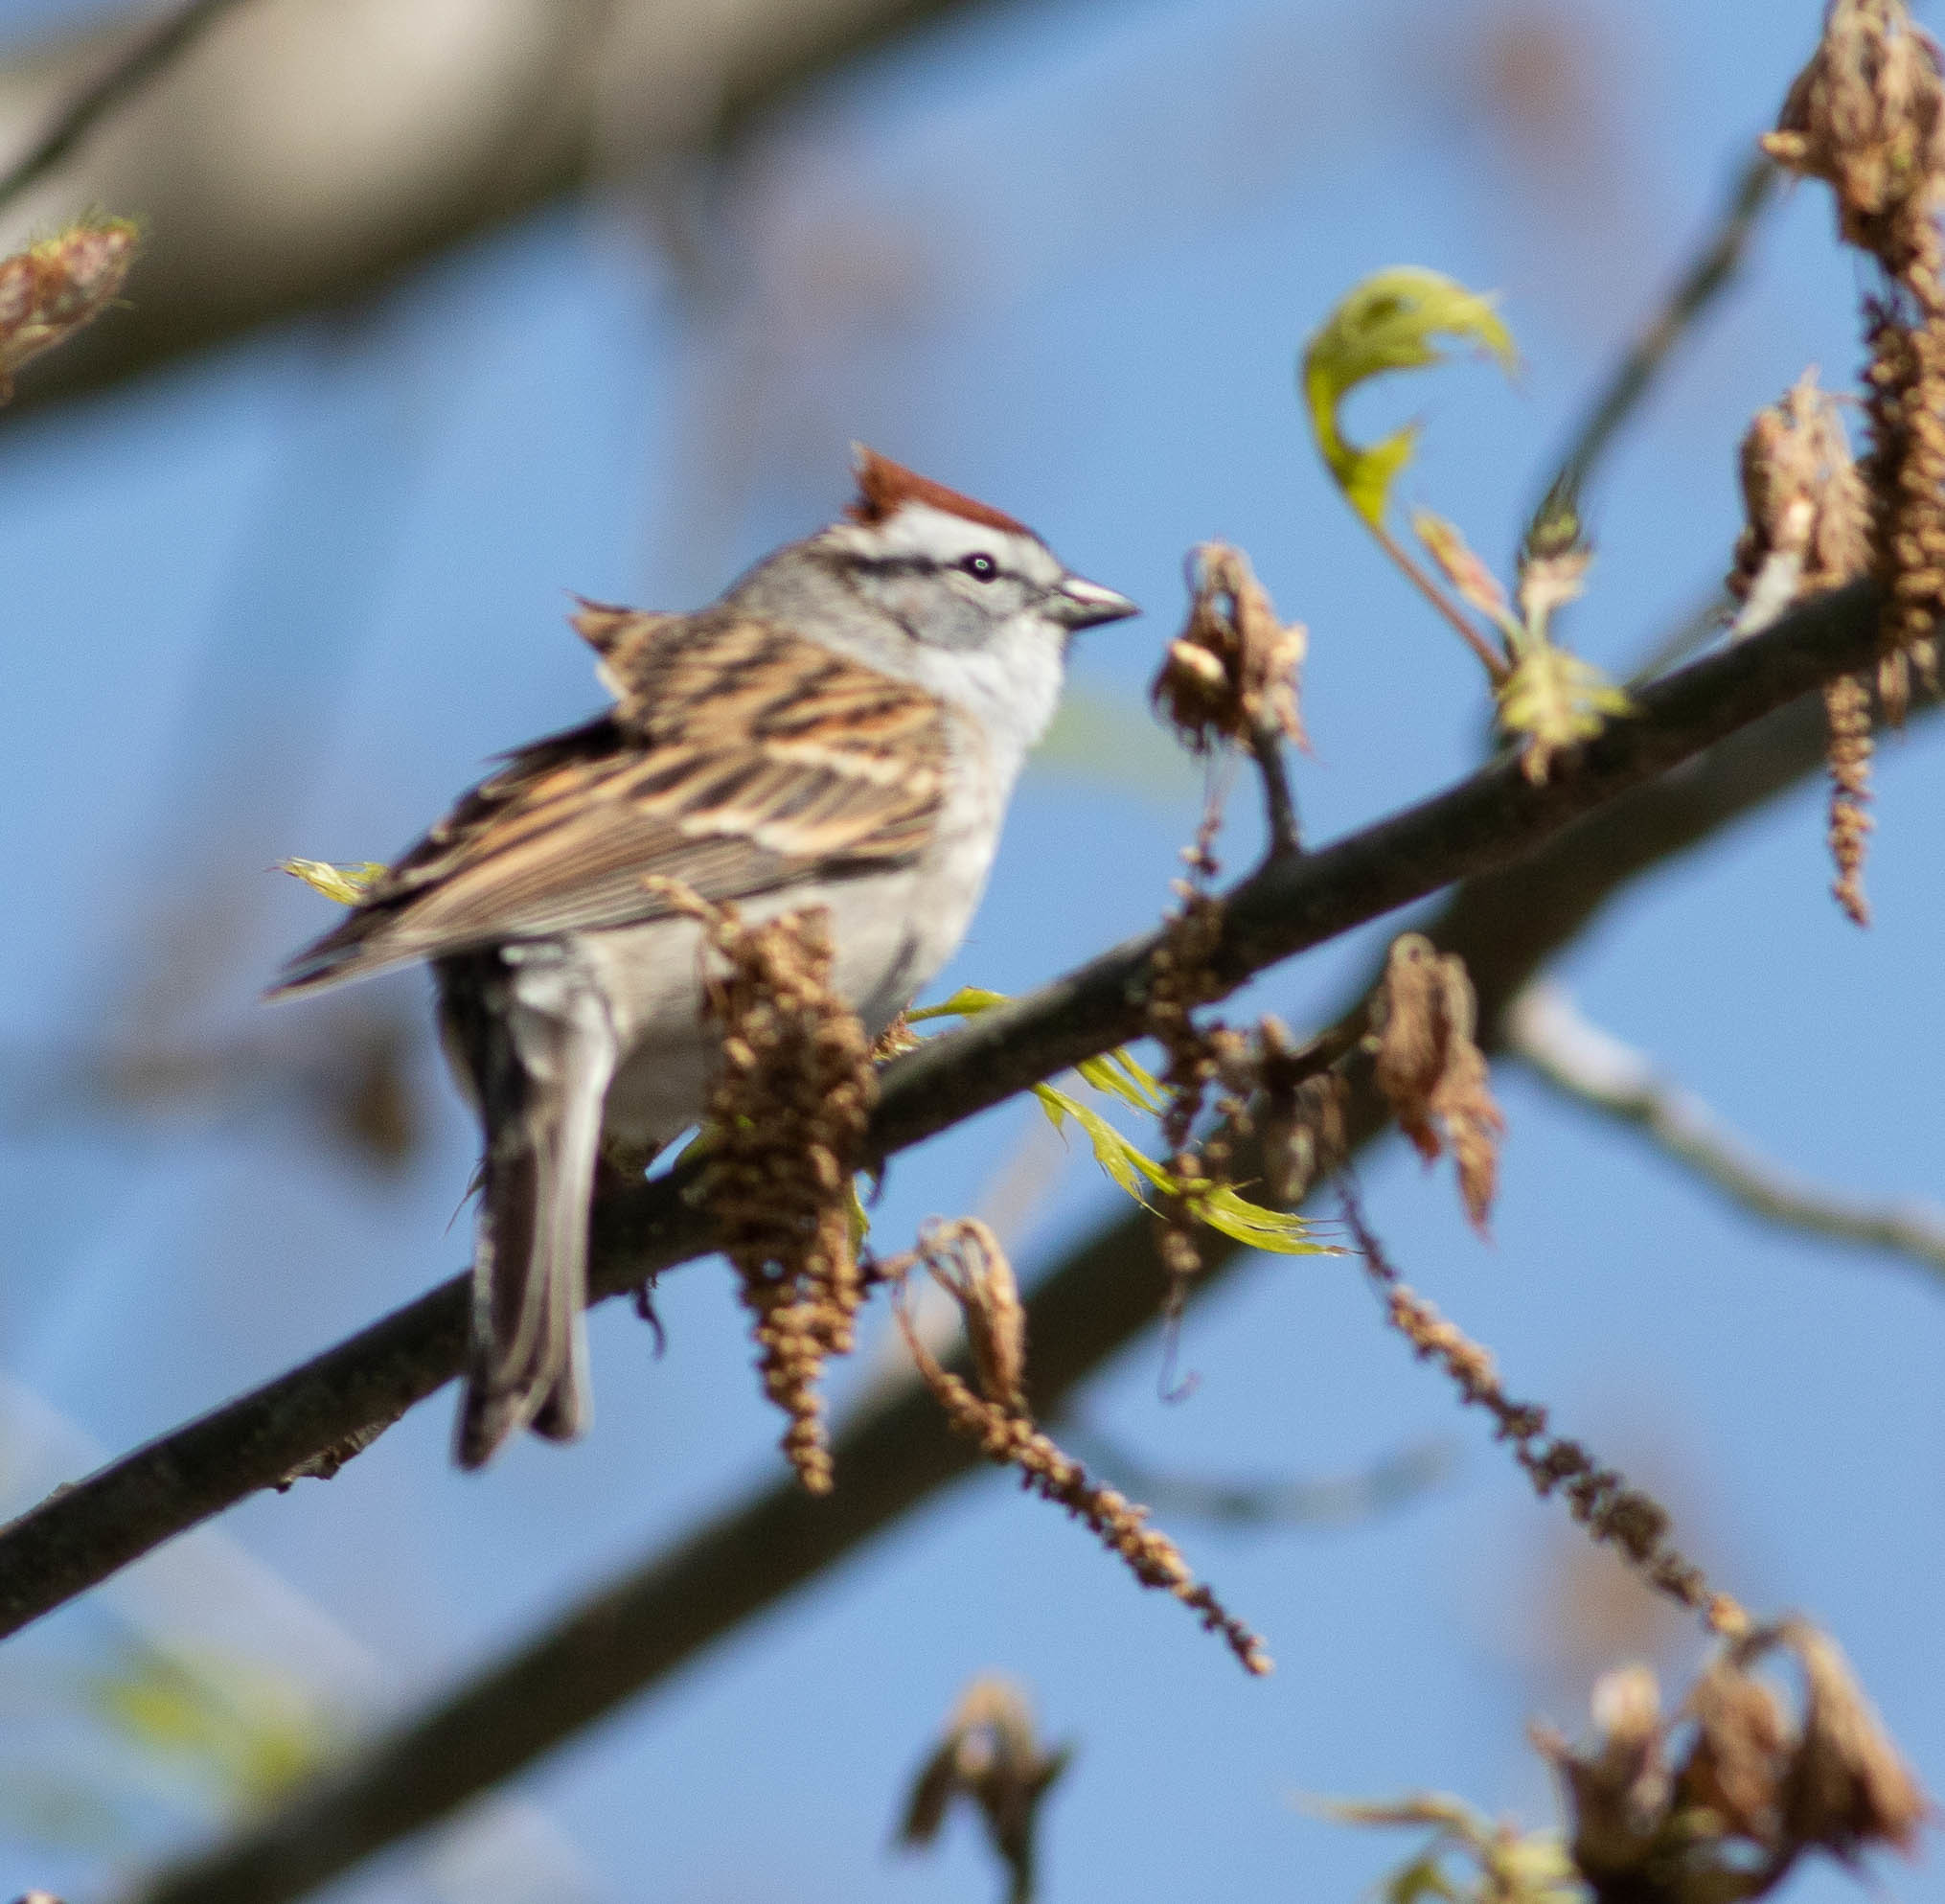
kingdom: Animalia
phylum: Chordata
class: Aves
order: Passeriformes
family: Passerellidae
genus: Spizella
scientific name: Spizella passerina
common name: Chipping sparrow
